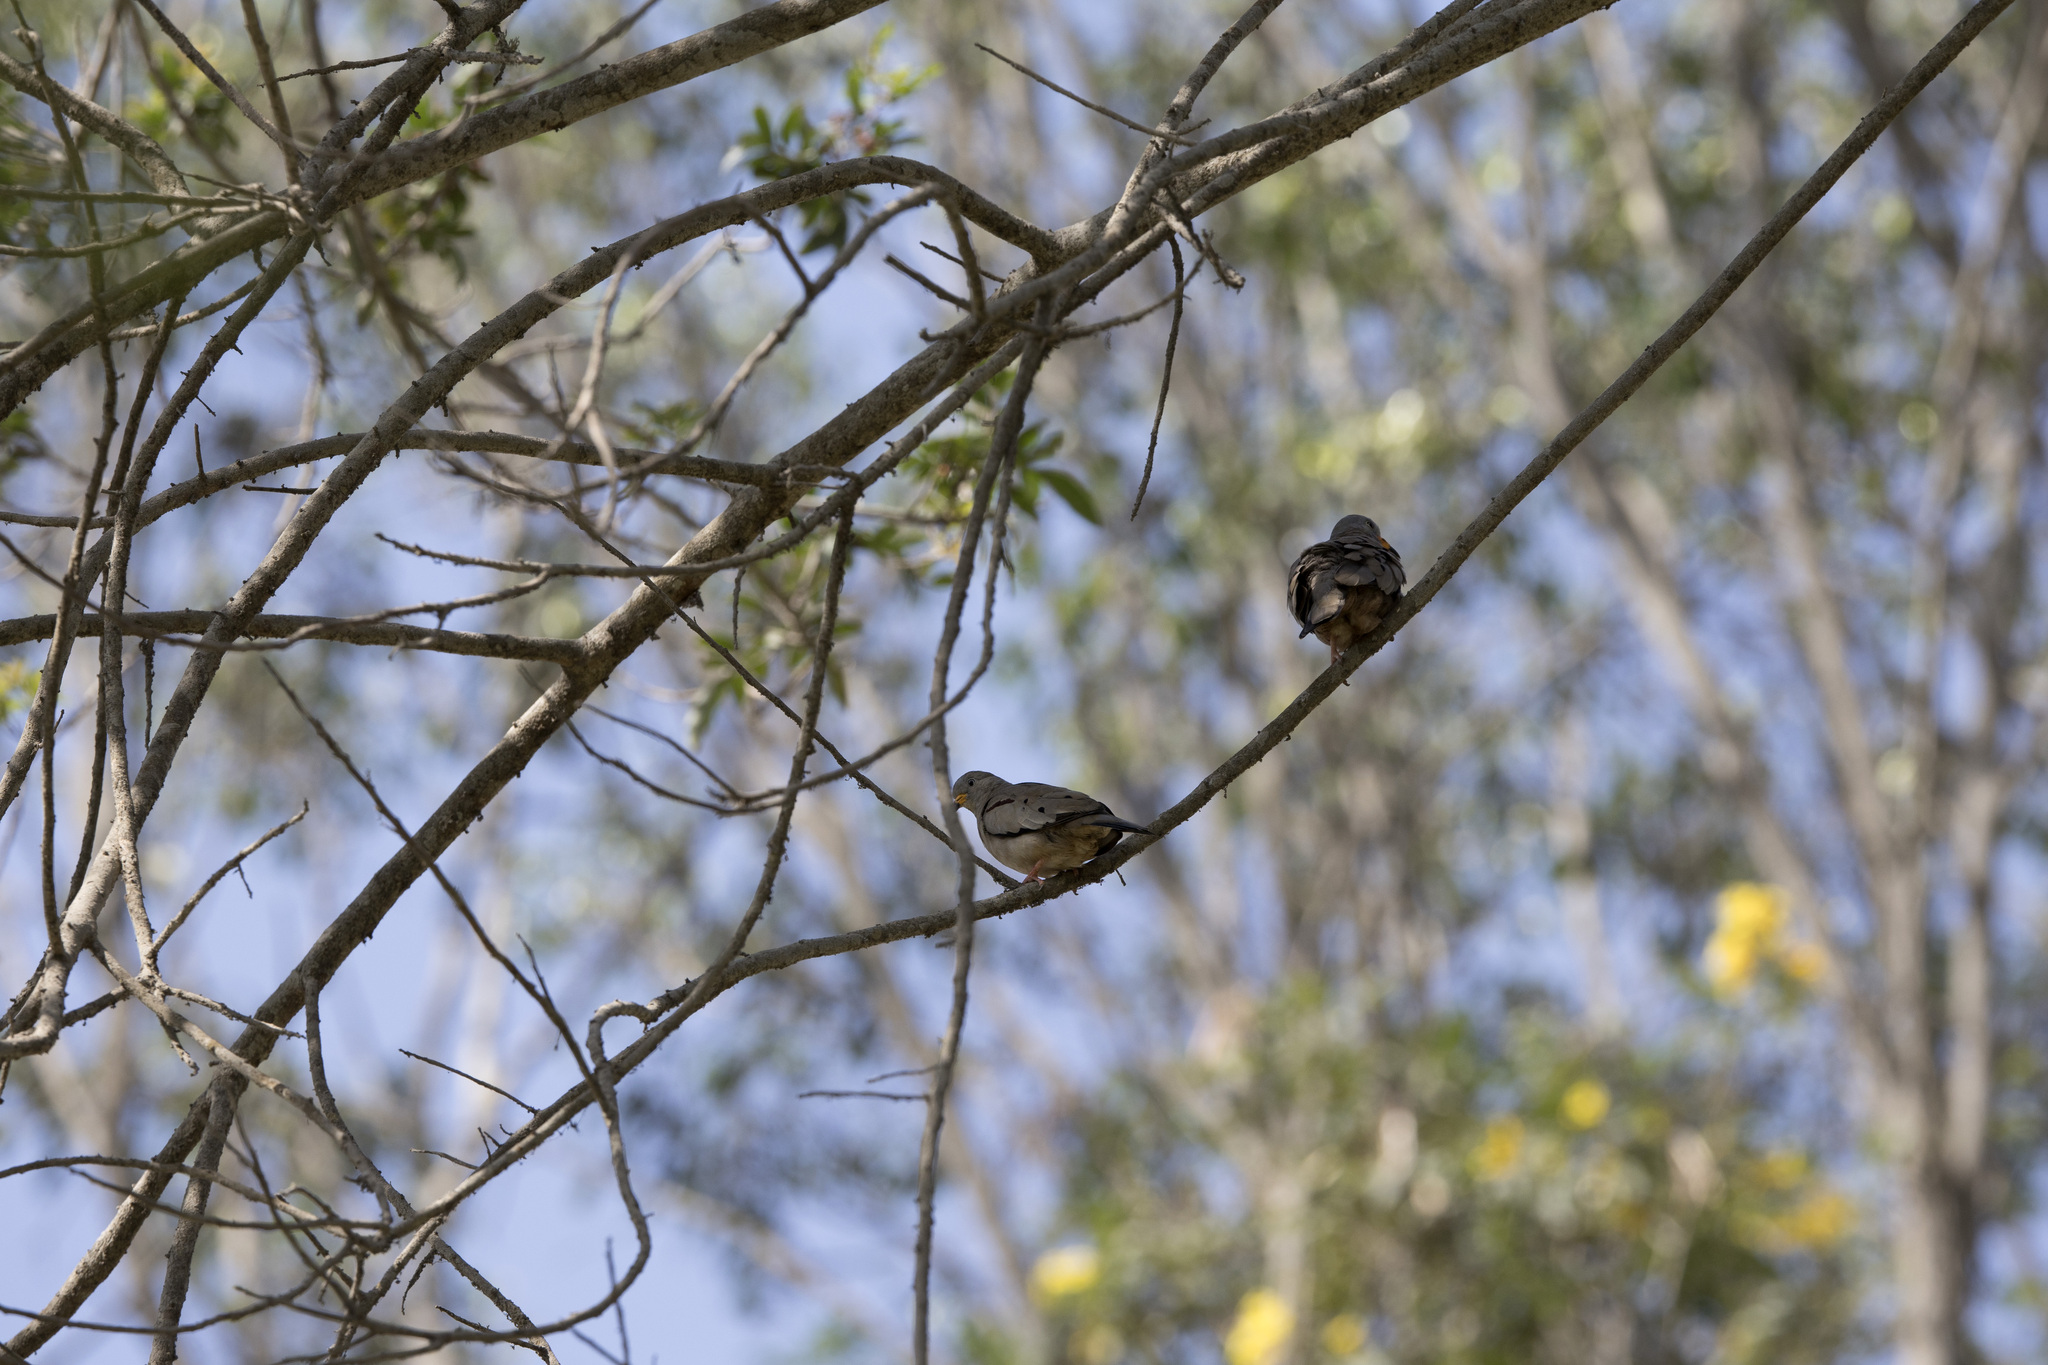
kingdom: Animalia
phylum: Chordata
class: Aves
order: Columbiformes
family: Columbidae
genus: Columbina
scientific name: Columbina cruziana
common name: Croaking ground dove
